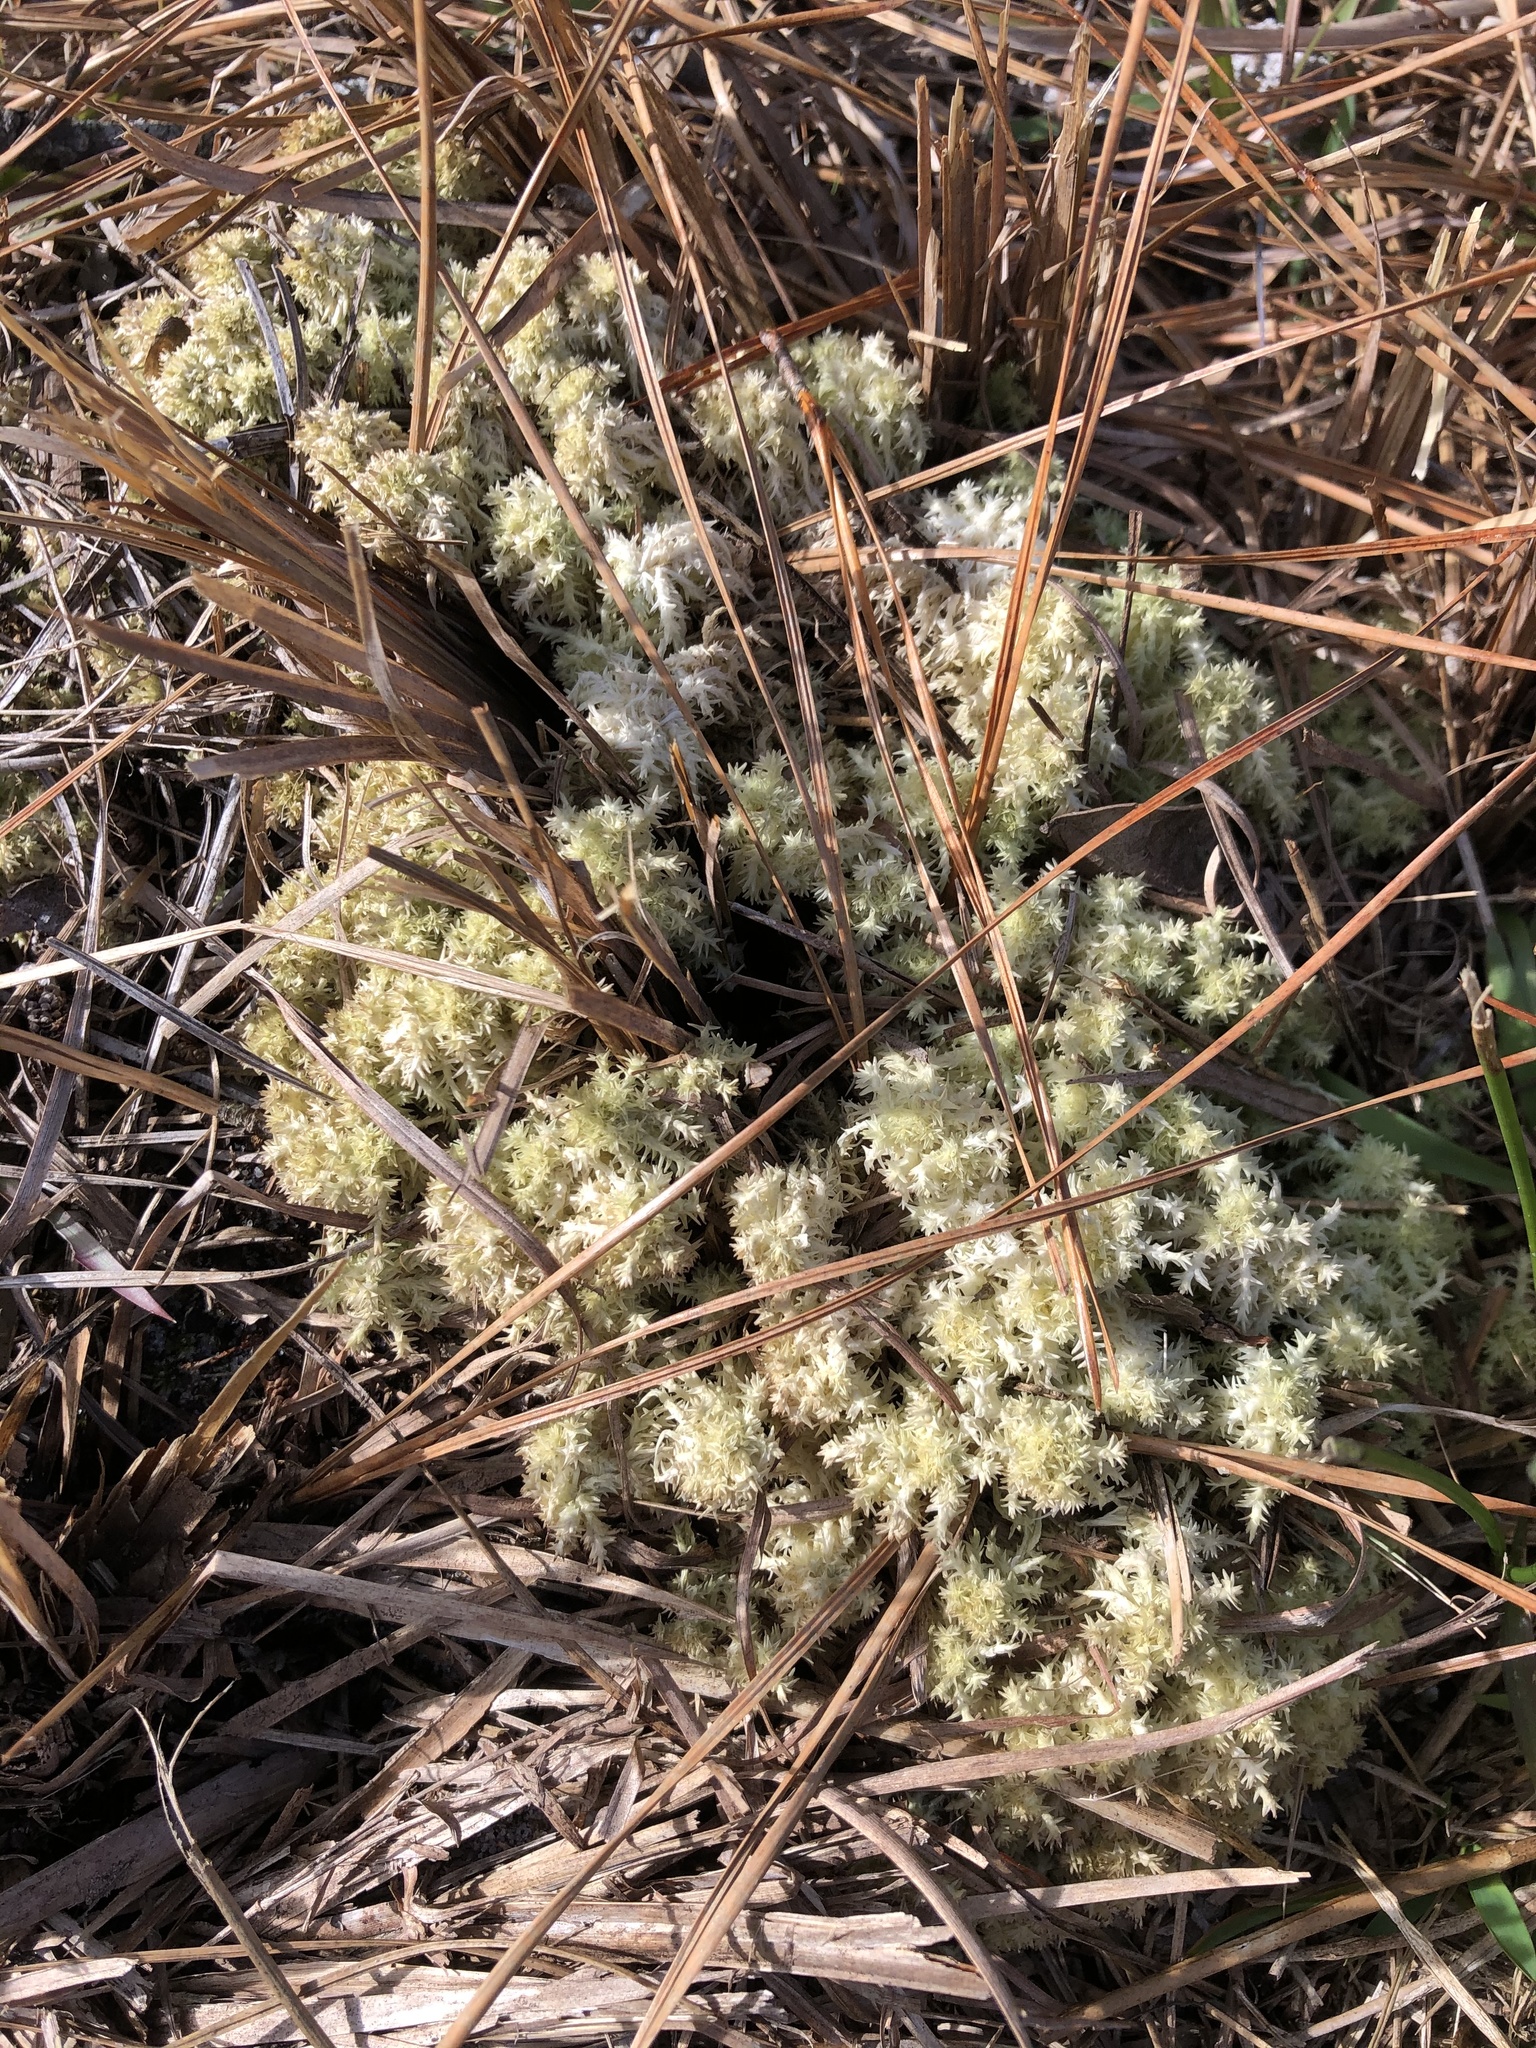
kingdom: Plantae
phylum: Bryophyta
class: Sphagnopsida
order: Sphagnales
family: Sphagnaceae
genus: Sphagnum
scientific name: Sphagnum strictum
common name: Pale bog-moss
